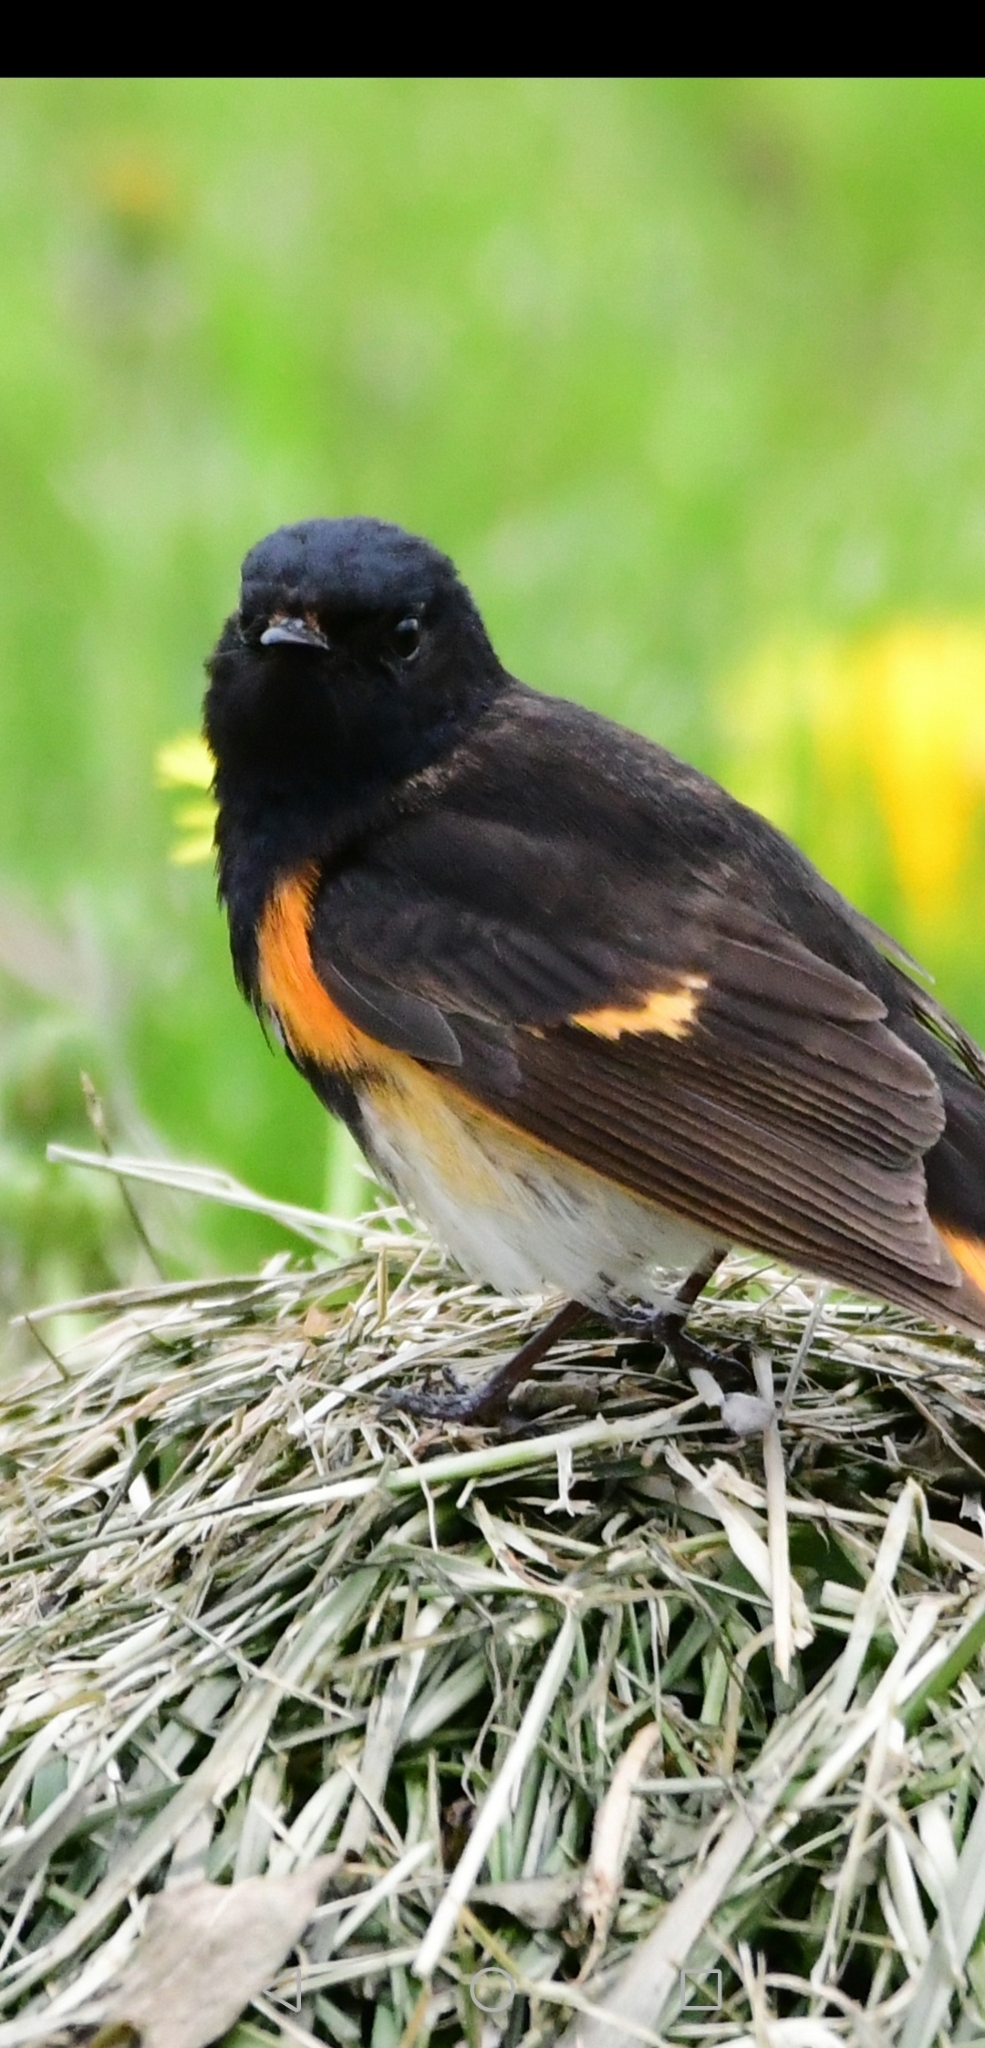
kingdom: Animalia
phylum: Chordata
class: Aves
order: Passeriformes
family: Parulidae
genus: Setophaga
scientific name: Setophaga ruticilla
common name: American redstart
